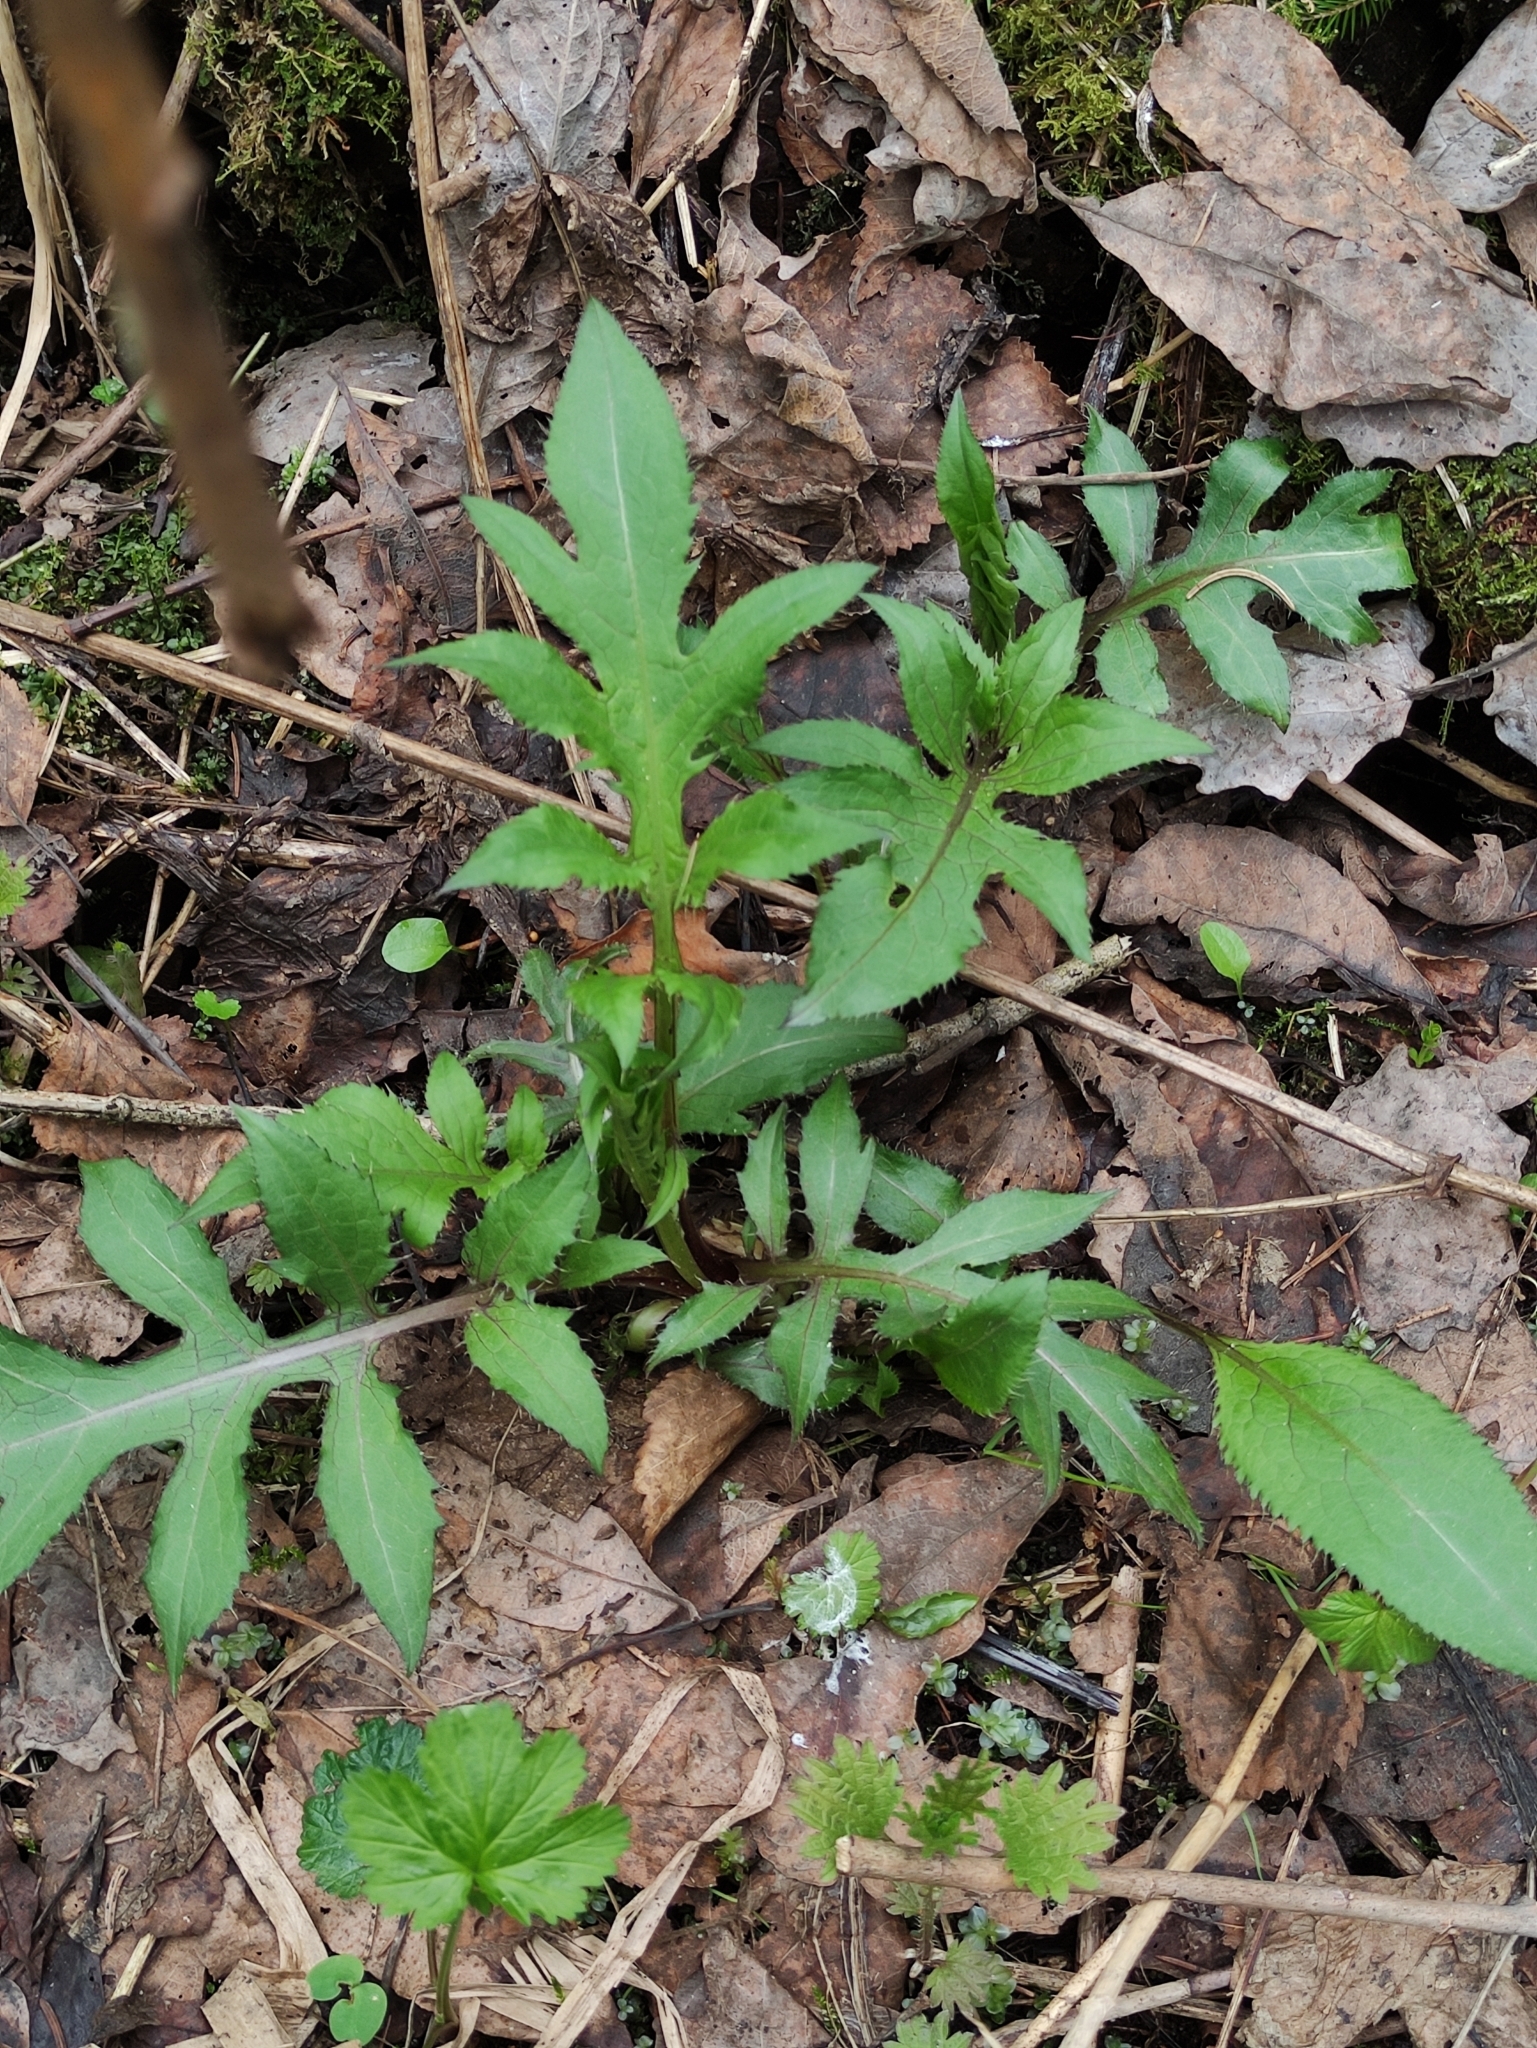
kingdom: Plantae
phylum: Tracheophyta
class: Magnoliopsida
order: Asterales
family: Asteraceae
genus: Cirsium
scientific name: Cirsium oleraceum
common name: Cabbage thistle
